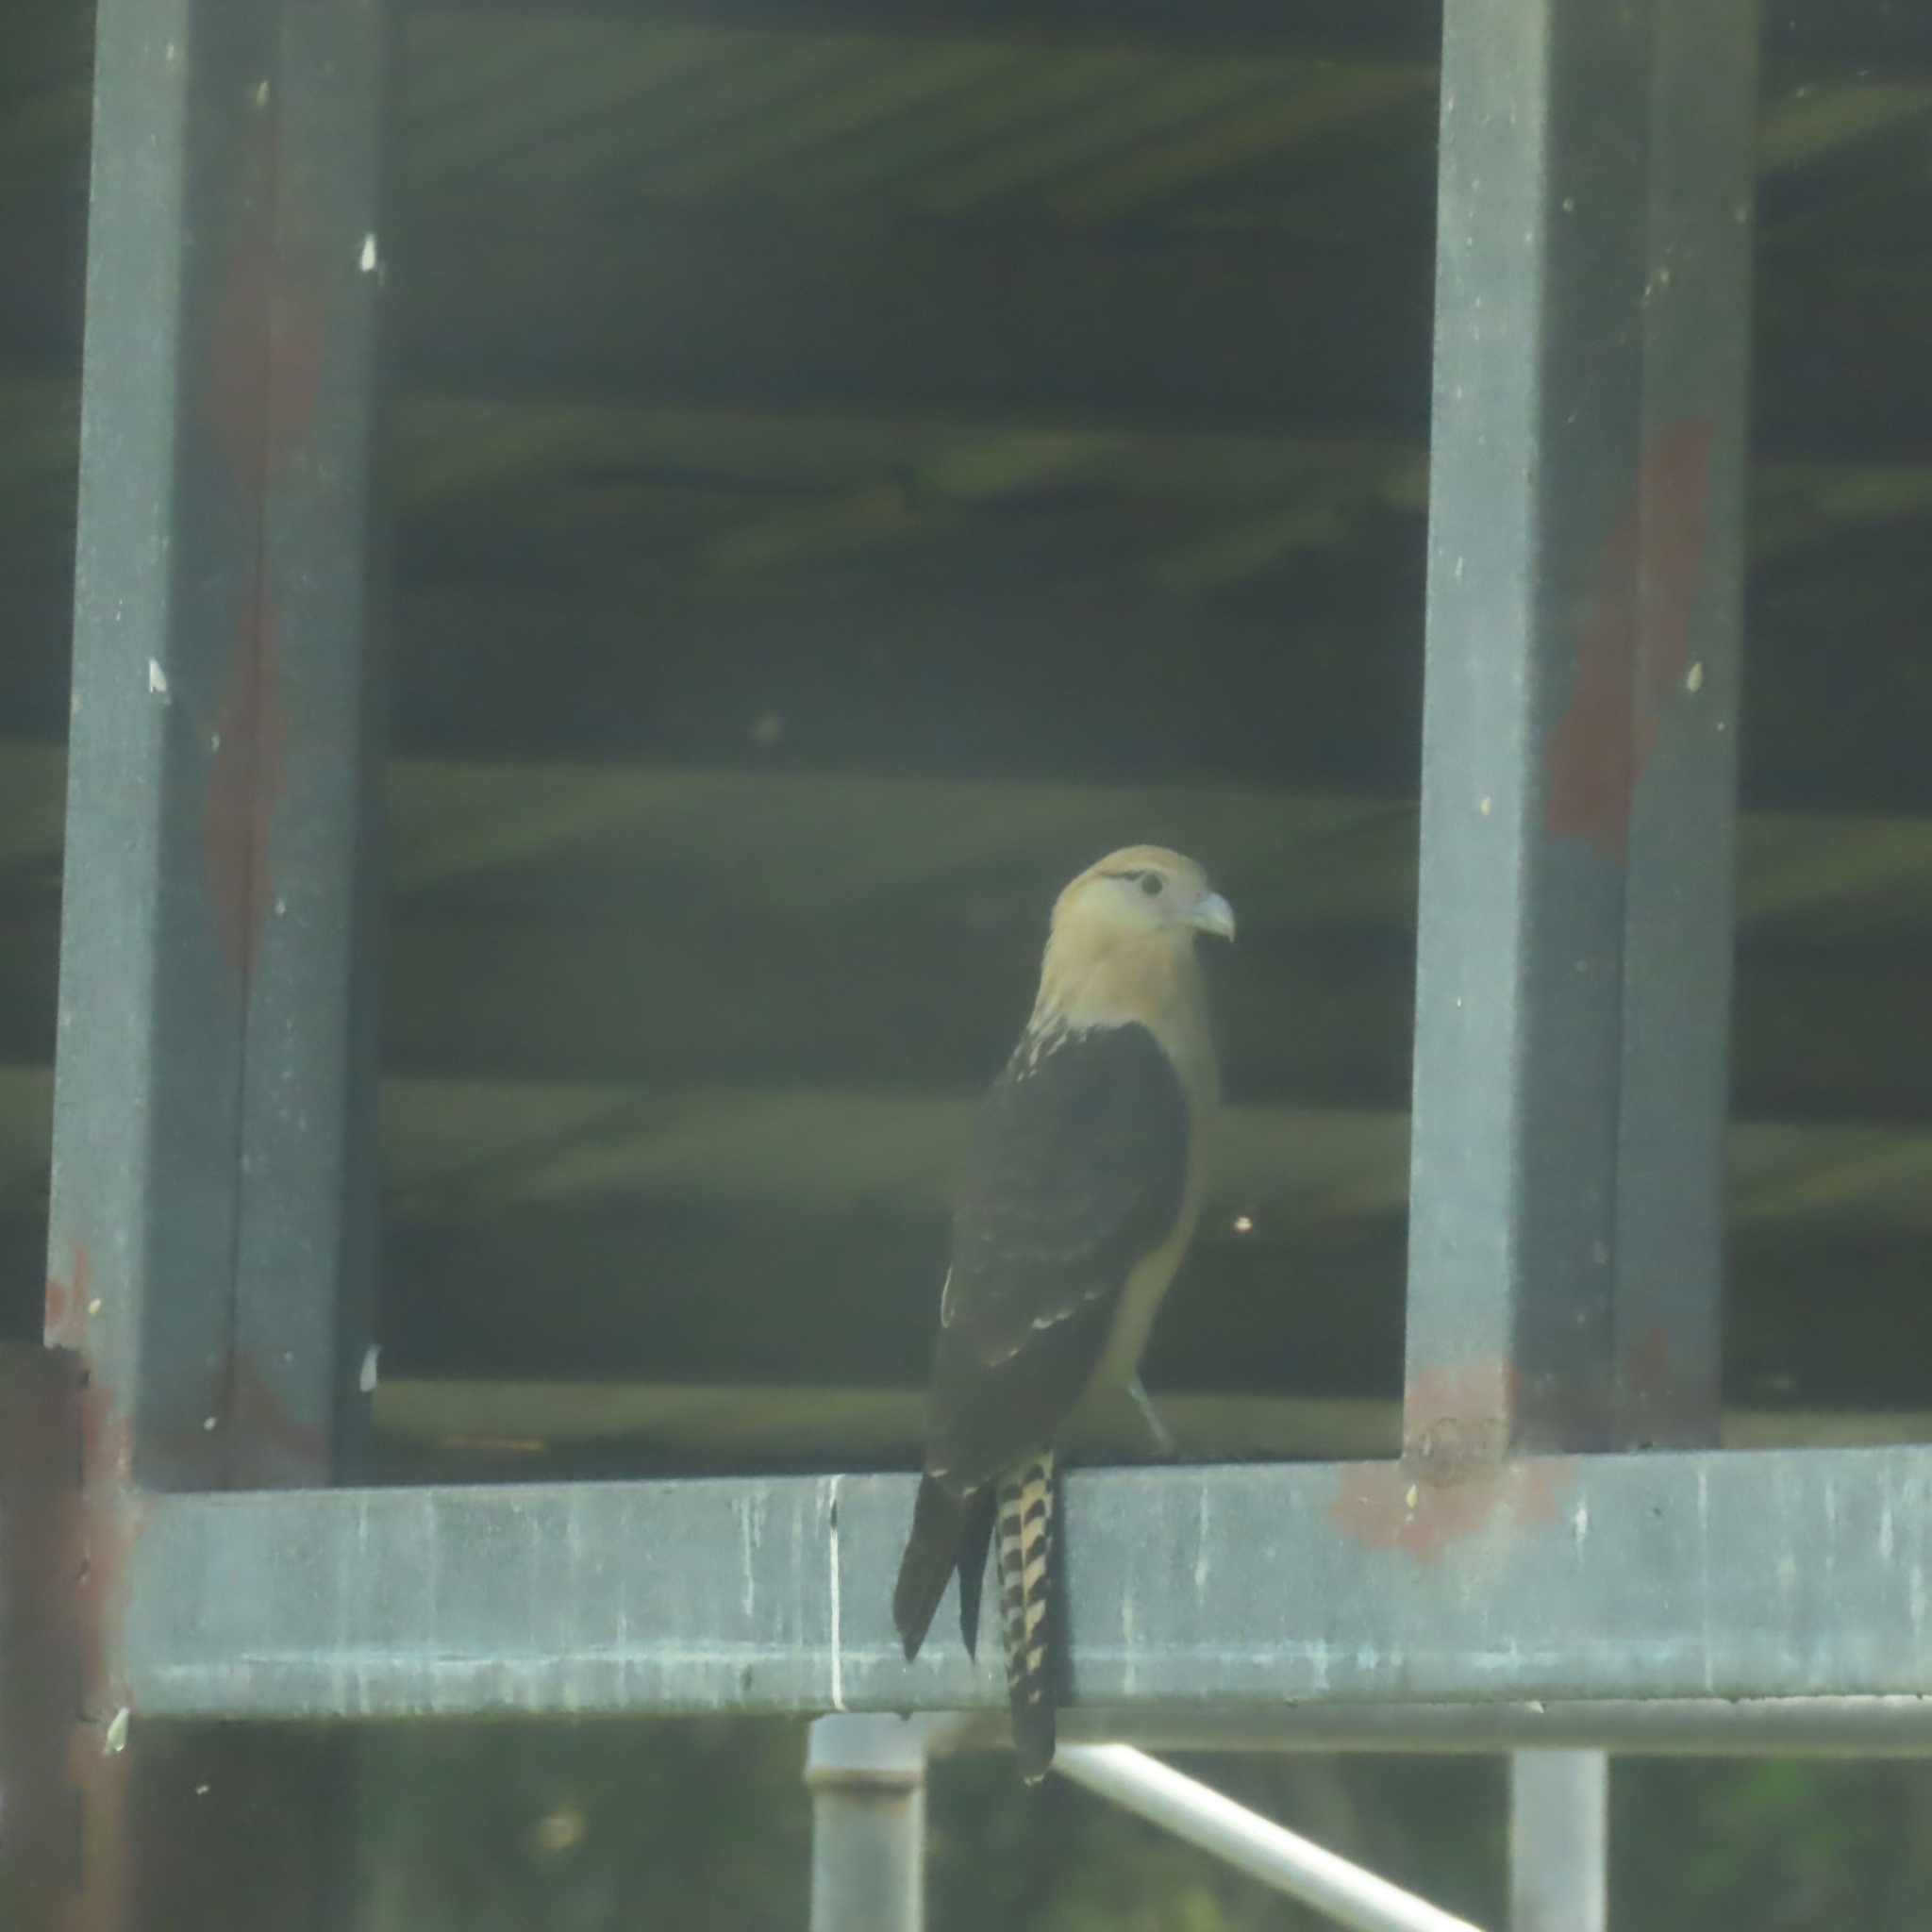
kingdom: Animalia
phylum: Chordata
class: Aves
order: Falconiformes
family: Falconidae
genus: Daptrius
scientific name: Daptrius
